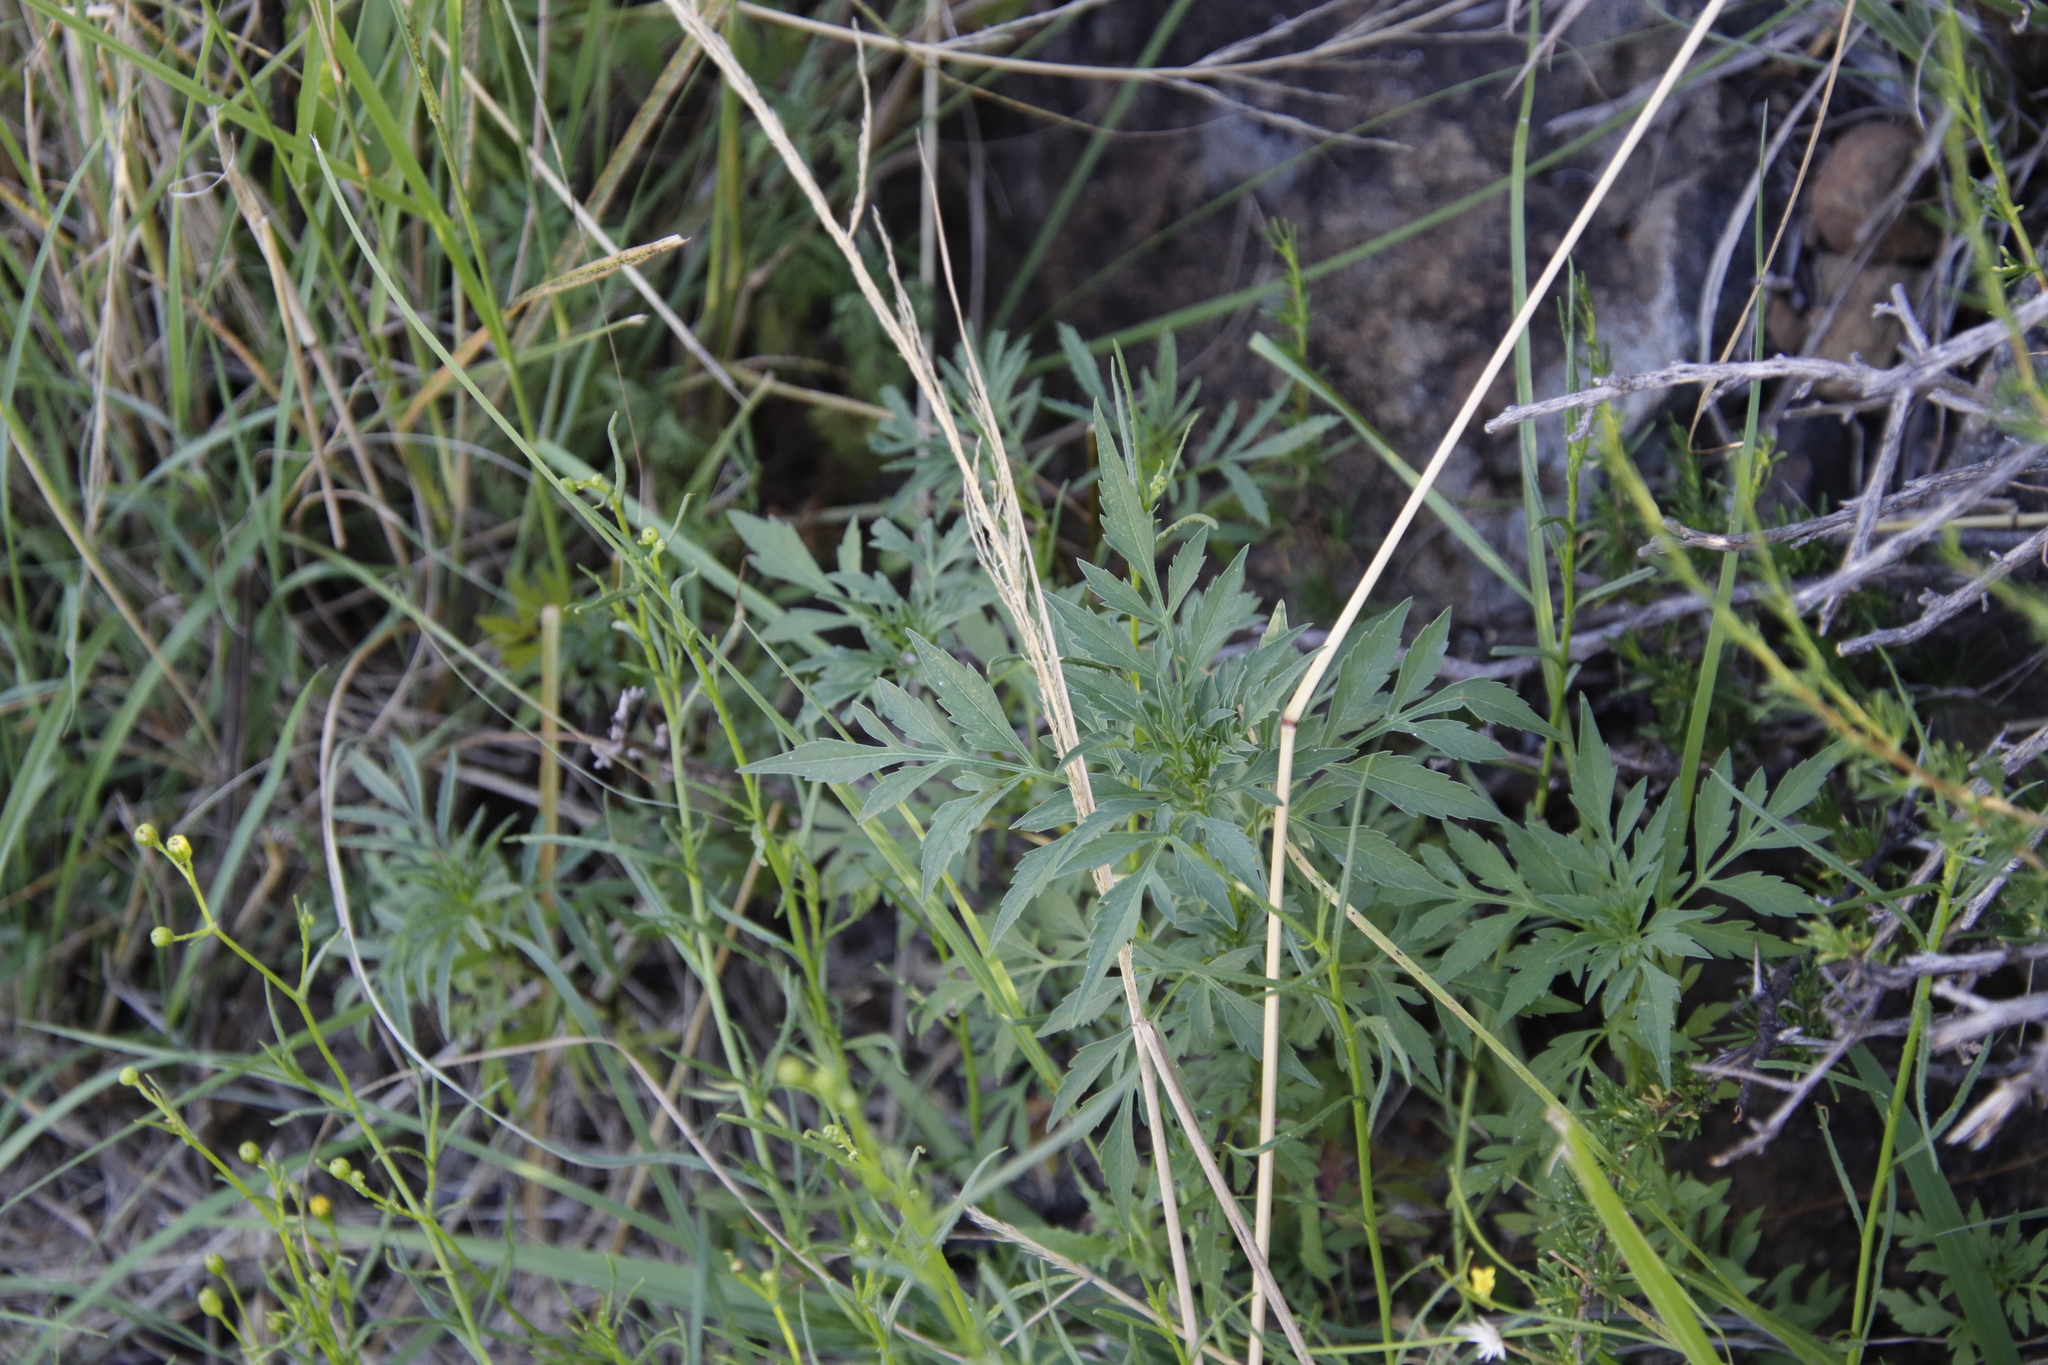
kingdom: Plantae
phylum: Tracheophyta
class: Magnoliopsida
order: Asterales
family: Asteraceae
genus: Bidens
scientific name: Bidens bipinnata
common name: Spanish-needles
